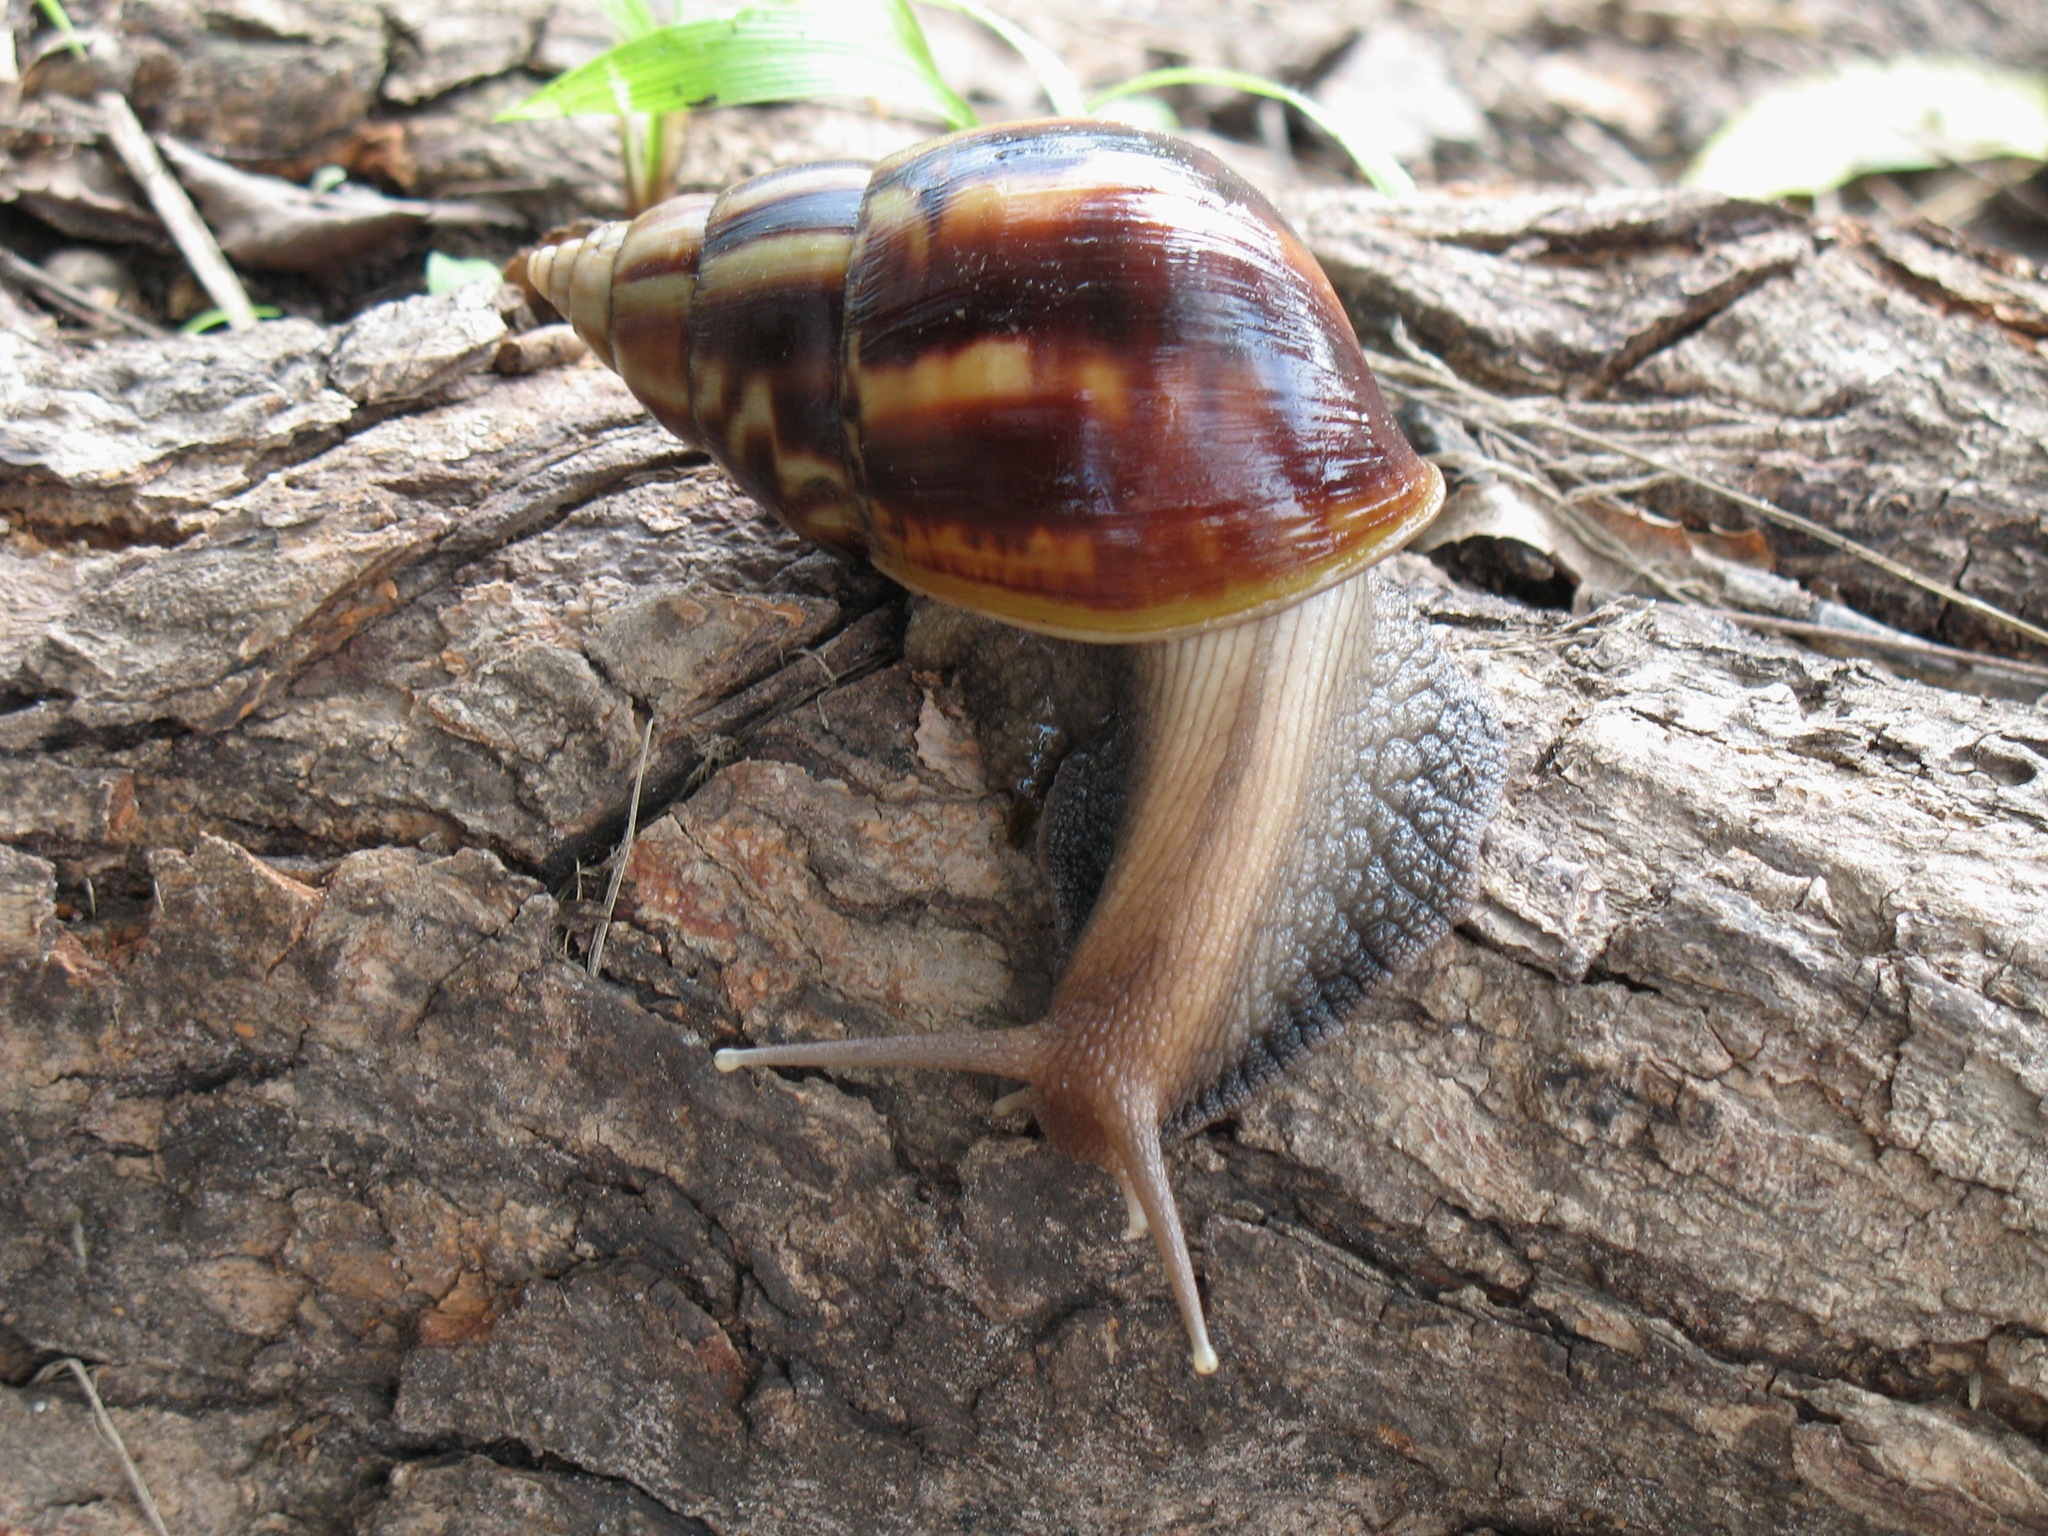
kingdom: Animalia
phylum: Mollusca
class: Gastropoda
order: Stylommatophora
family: Achatinidae
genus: Lissachatina
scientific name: Lissachatina fulica
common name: Giant african snail
